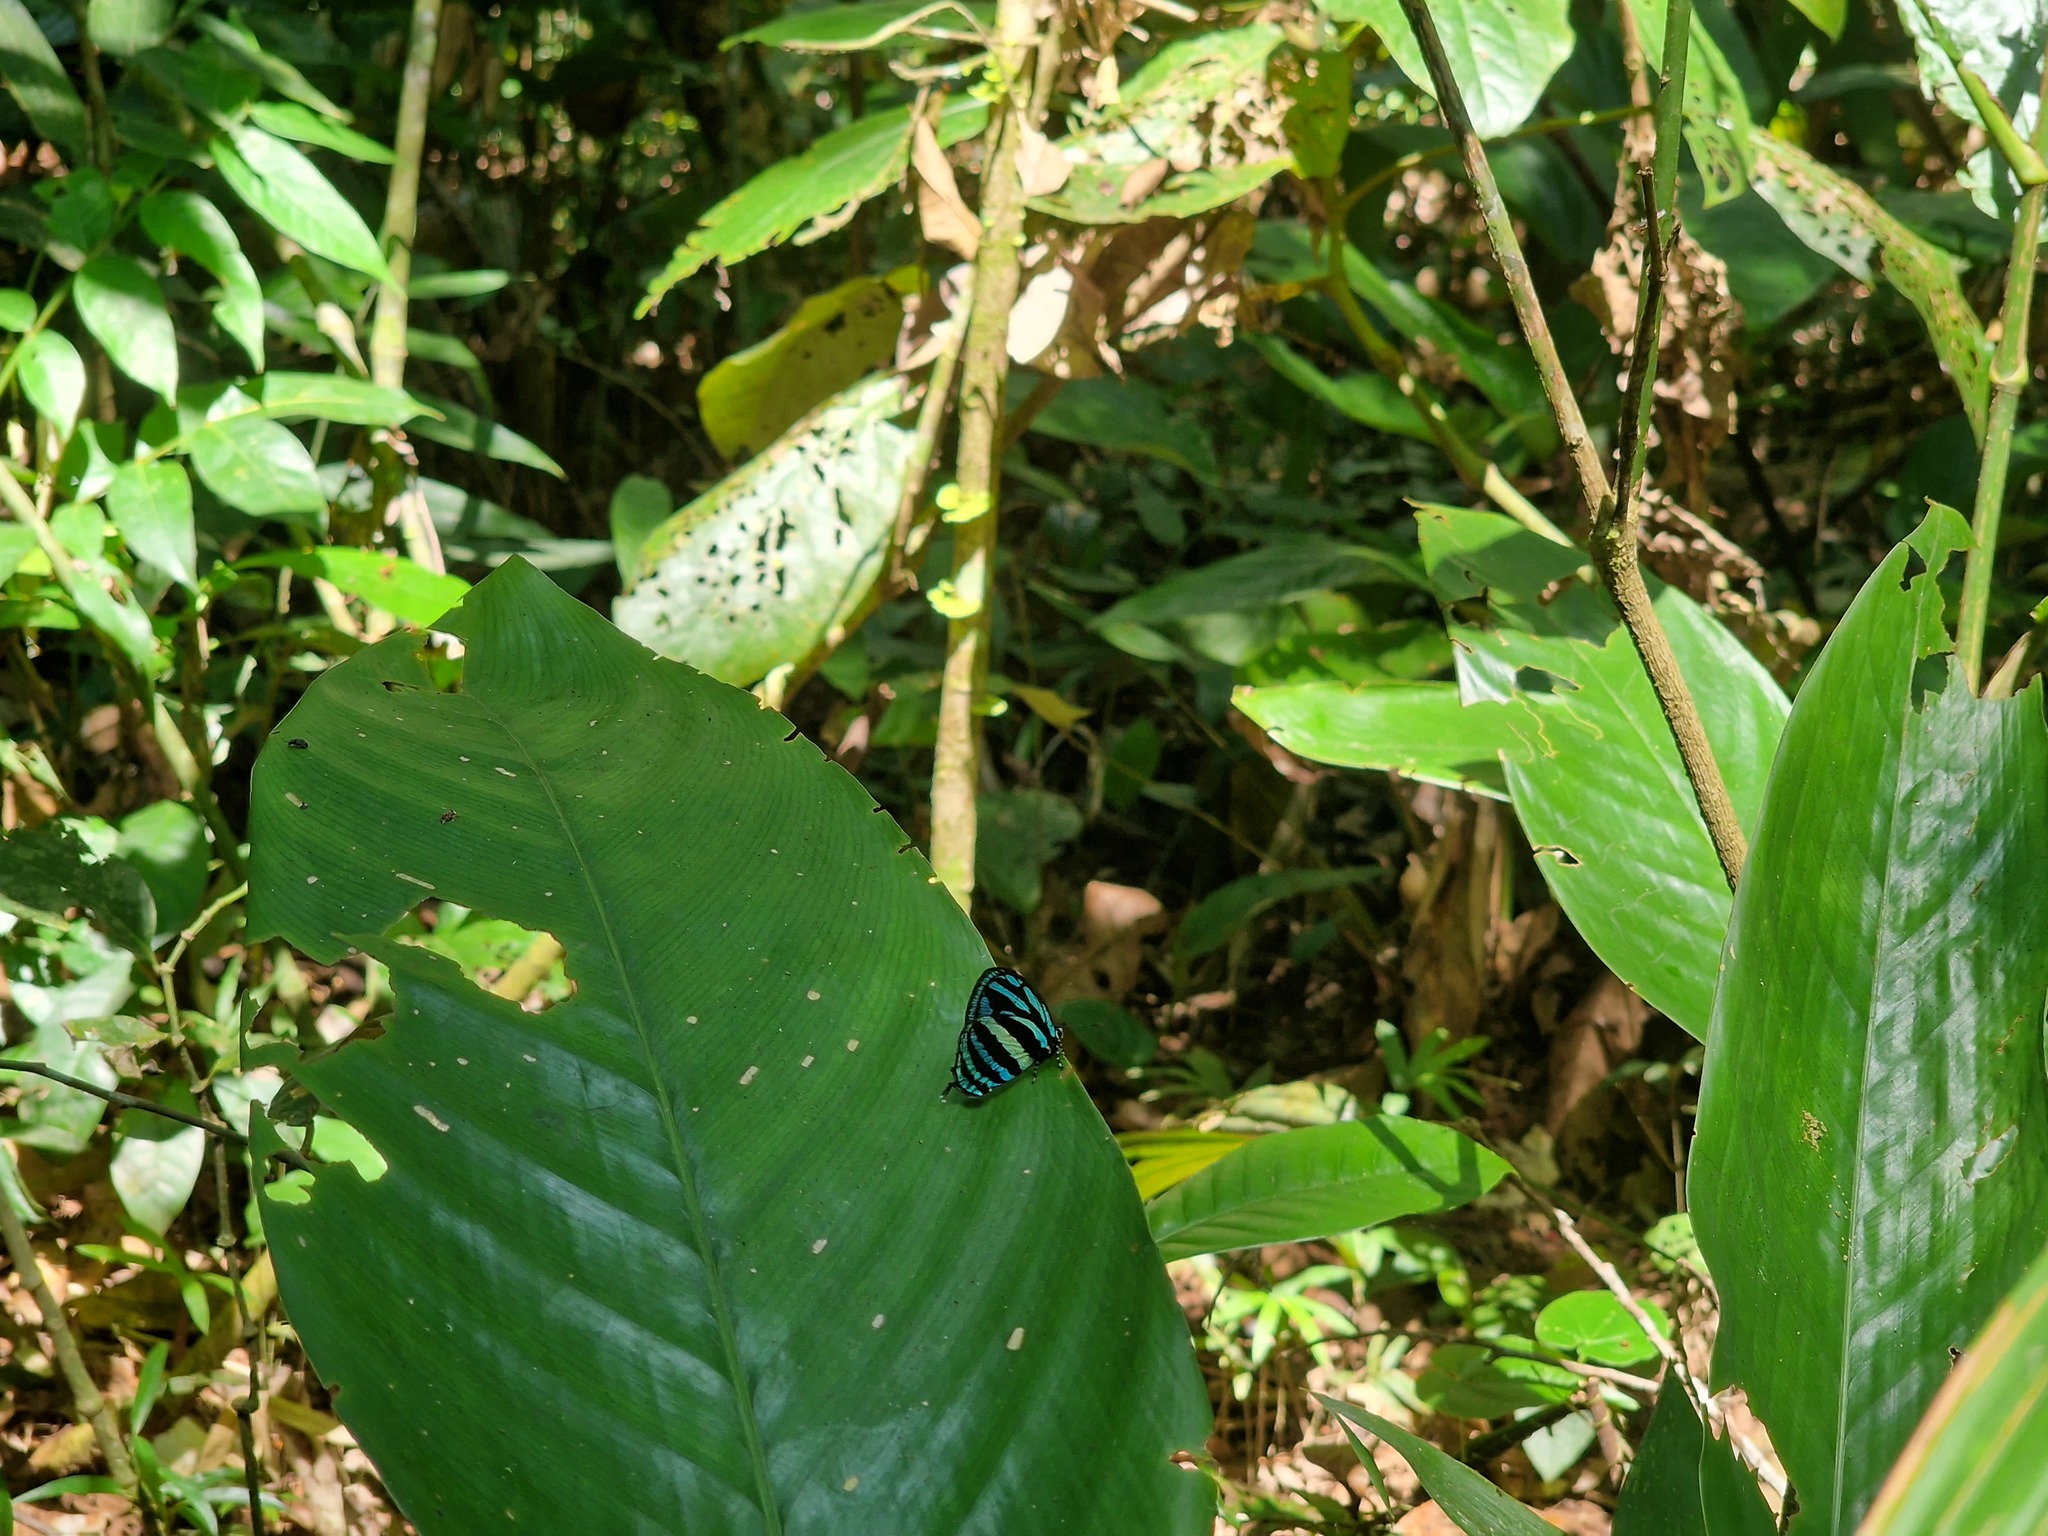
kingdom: Animalia
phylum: Arthropoda
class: Insecta
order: Lepidoptera
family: Lycaenidae
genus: Thestius
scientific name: Thestius
